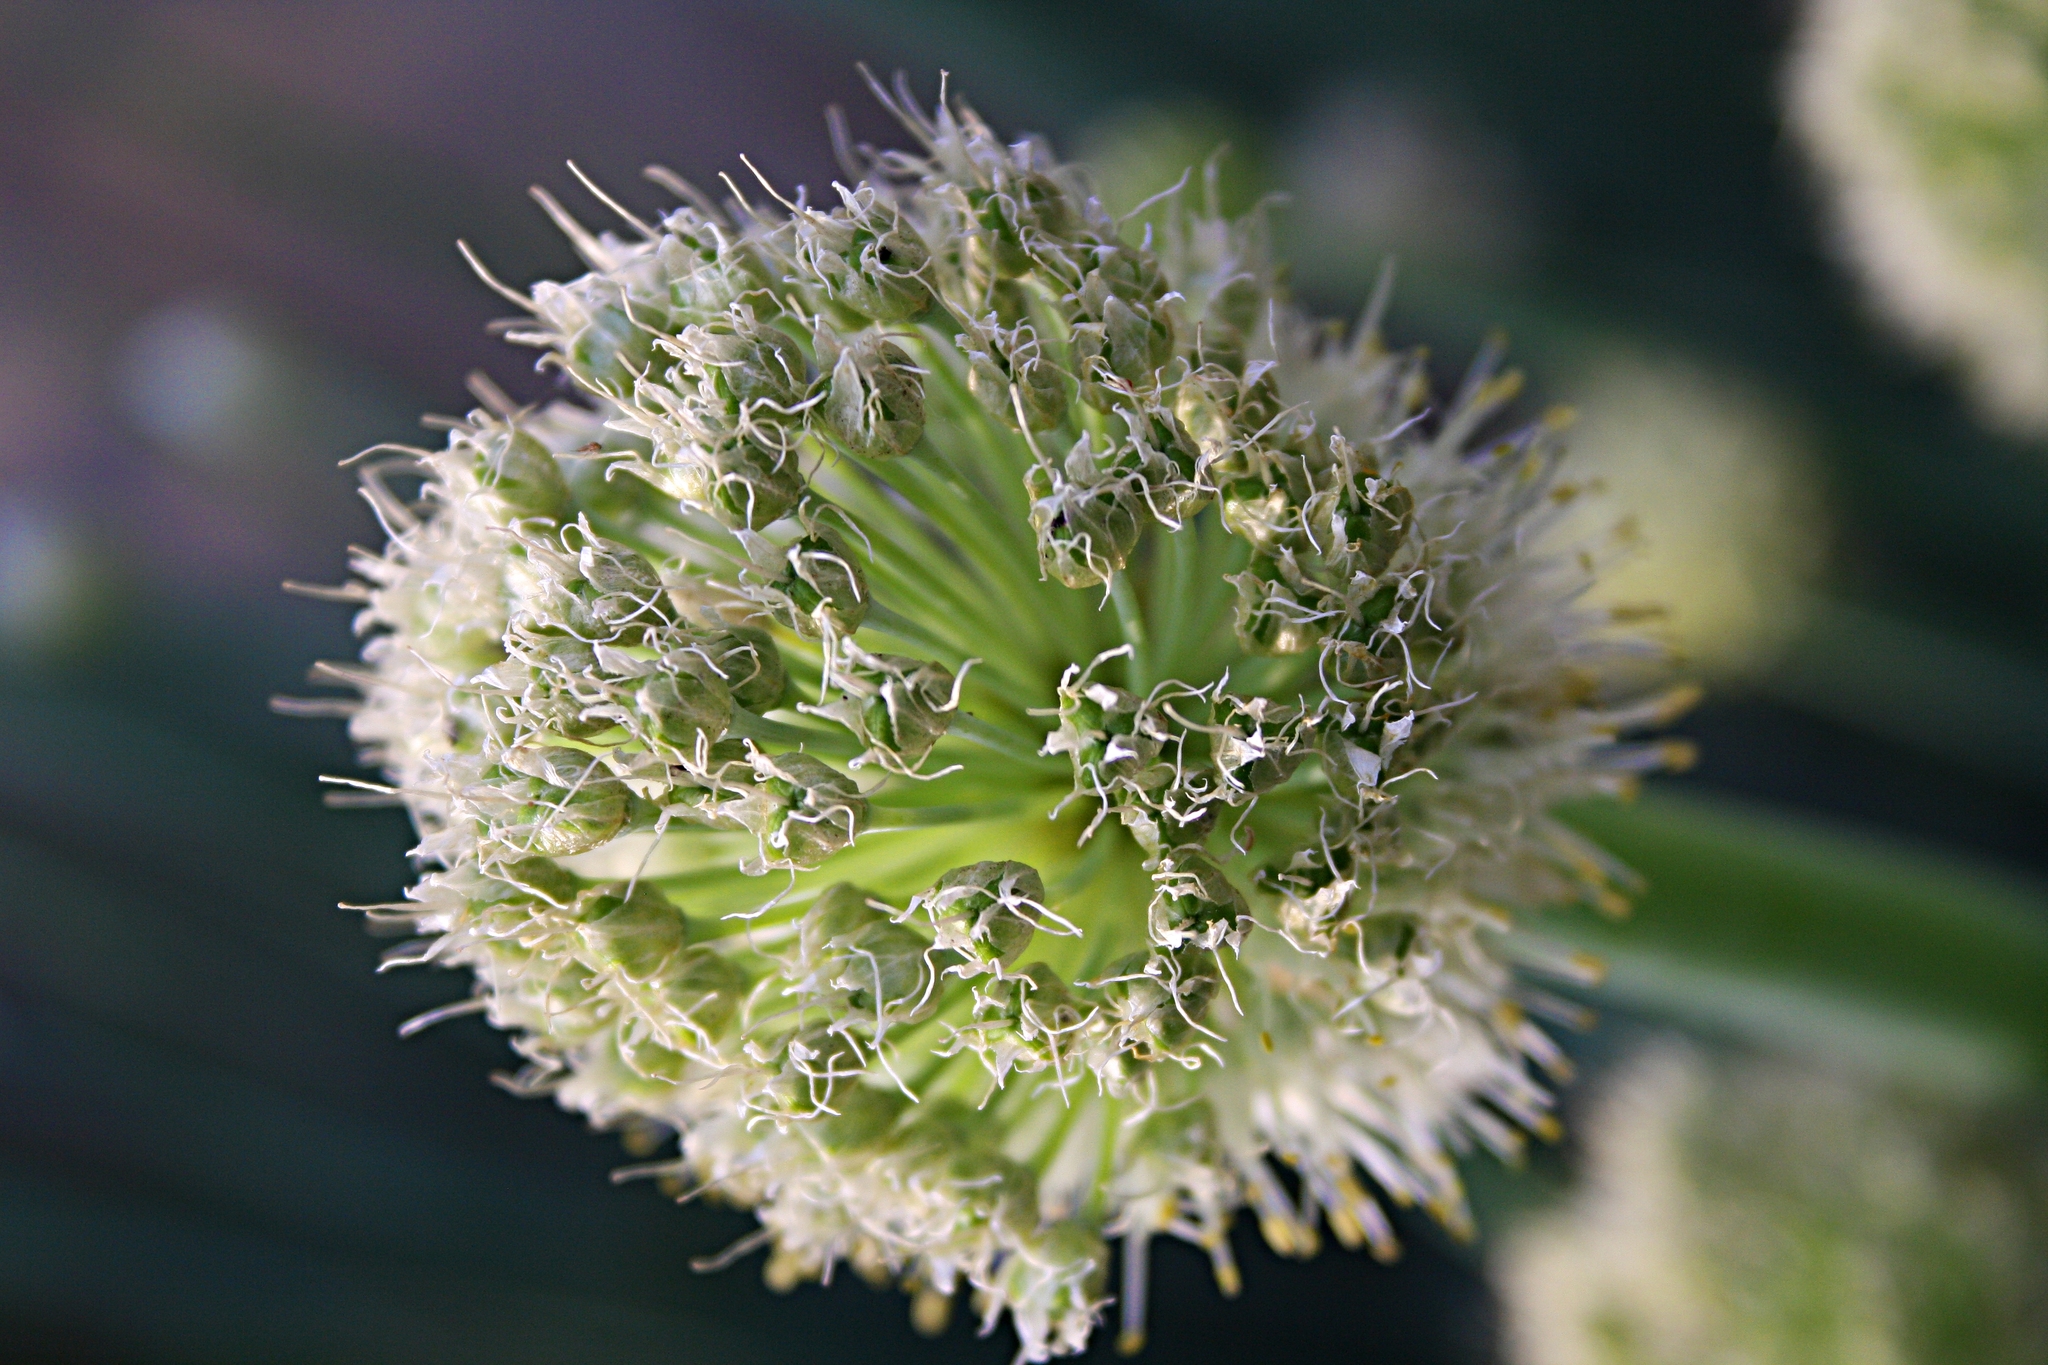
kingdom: Plantae
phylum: Tracheophyta
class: Liliopsida
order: Asparagales
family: Amaryllidaceae
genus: Allium
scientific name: Allium altaicum
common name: Altai onion
